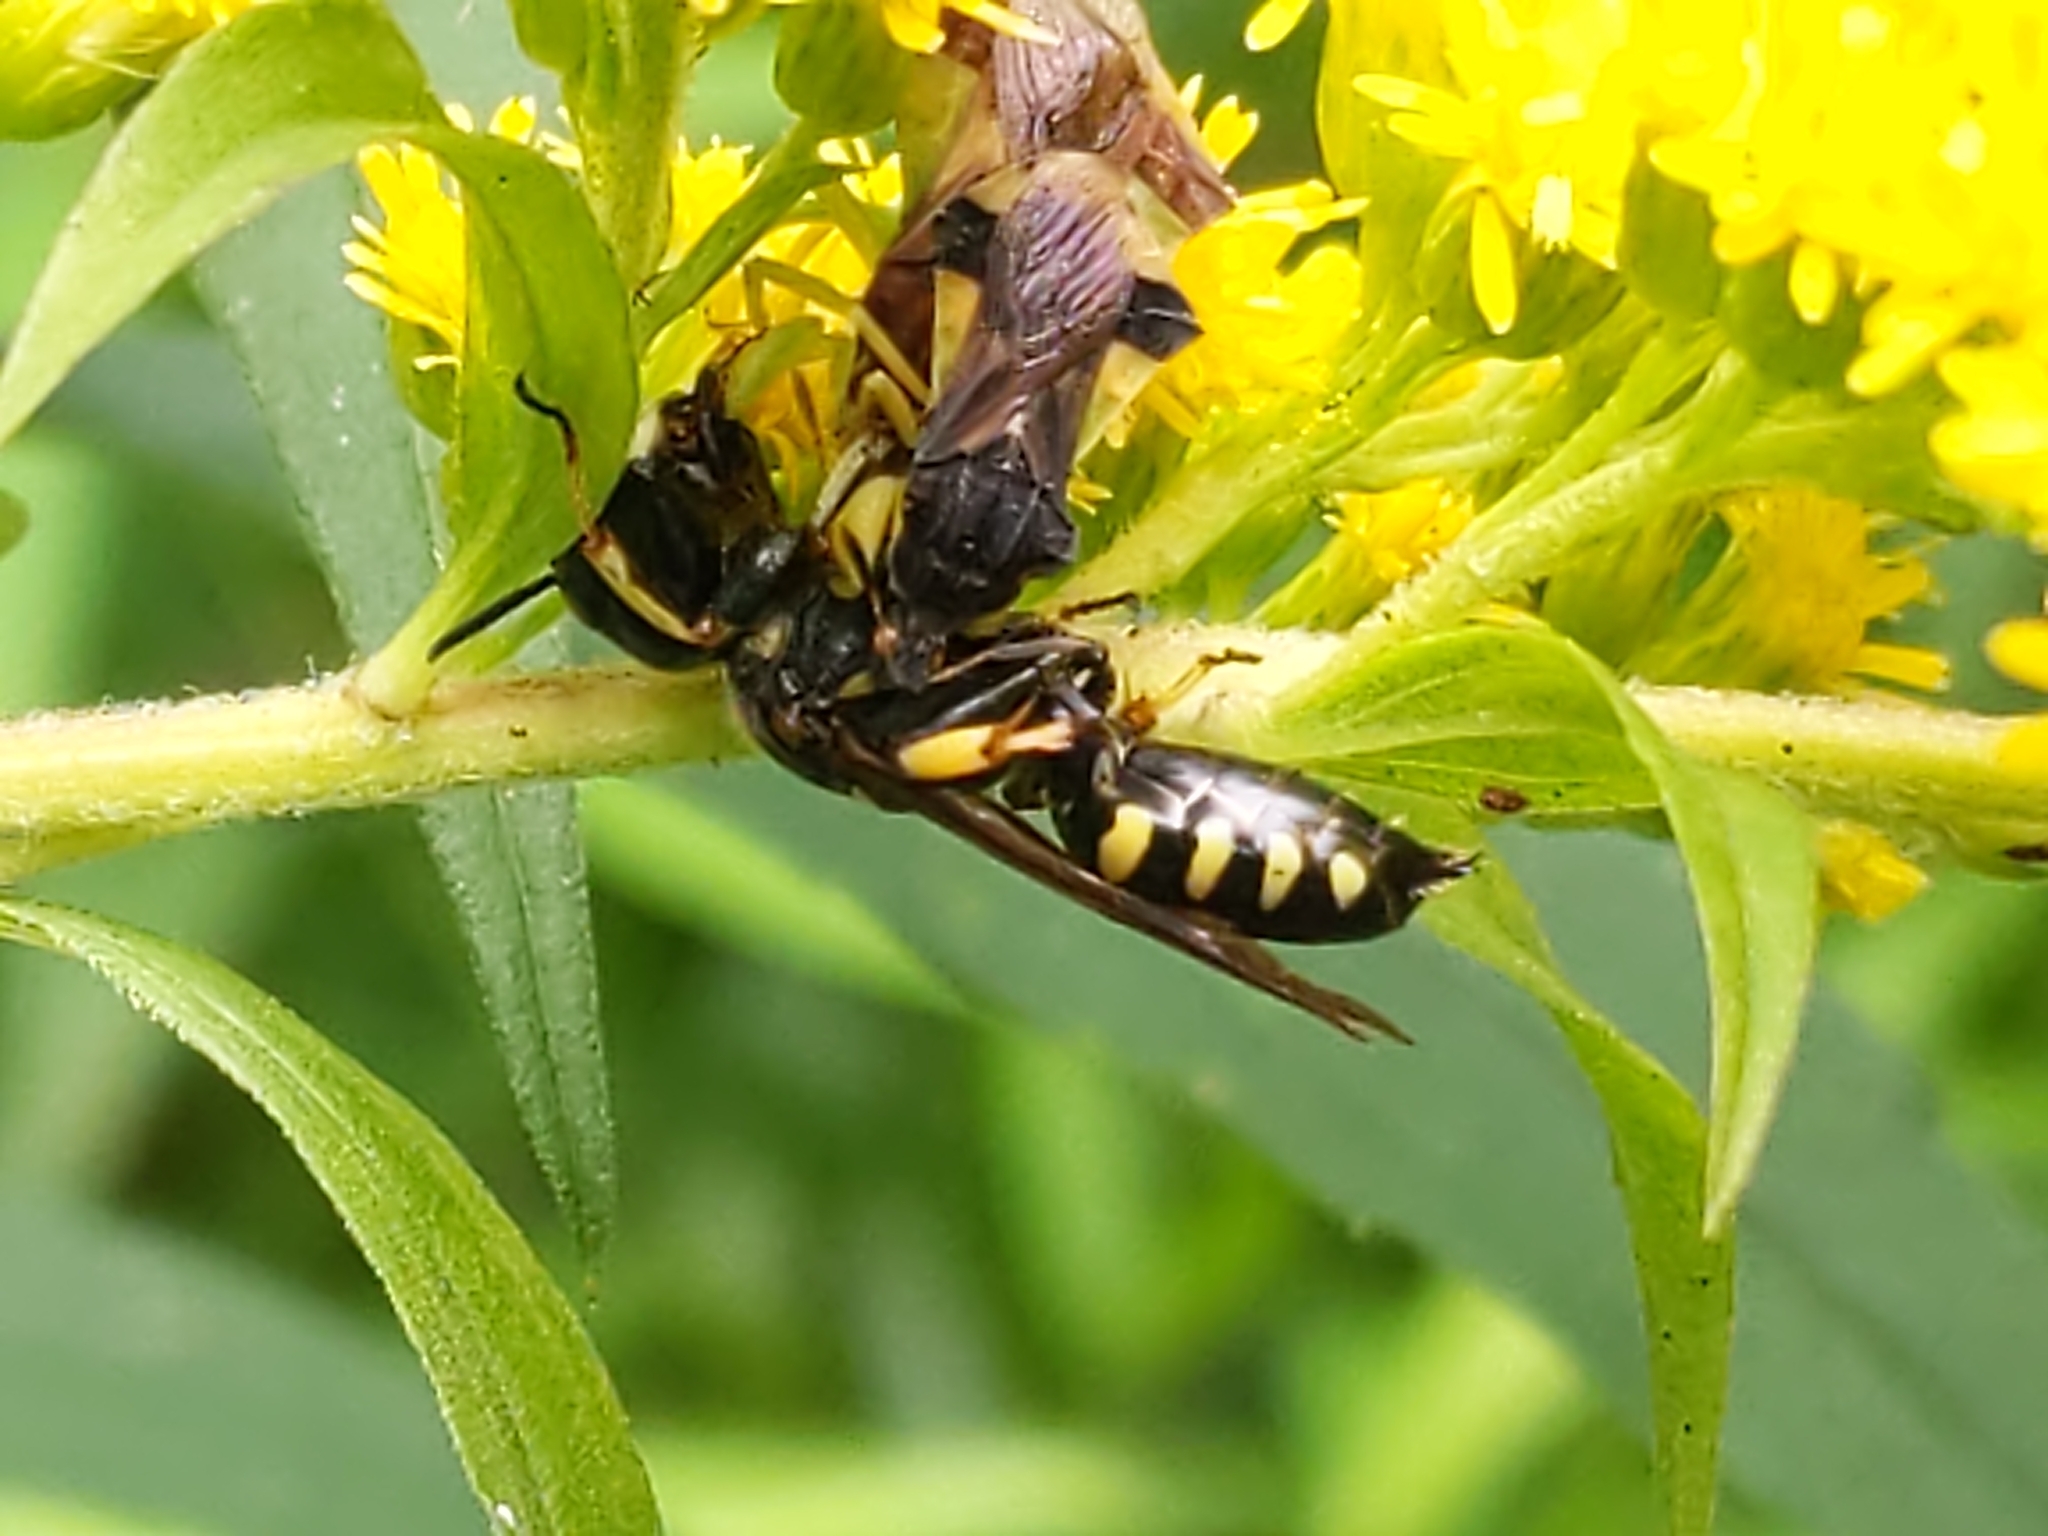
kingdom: Animalia
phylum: Arthropoda
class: Insecta
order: Hemiptera
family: Reduviidae
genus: Phymata
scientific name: Phymata pennsylvanica
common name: Pennsylvania ambush bug
